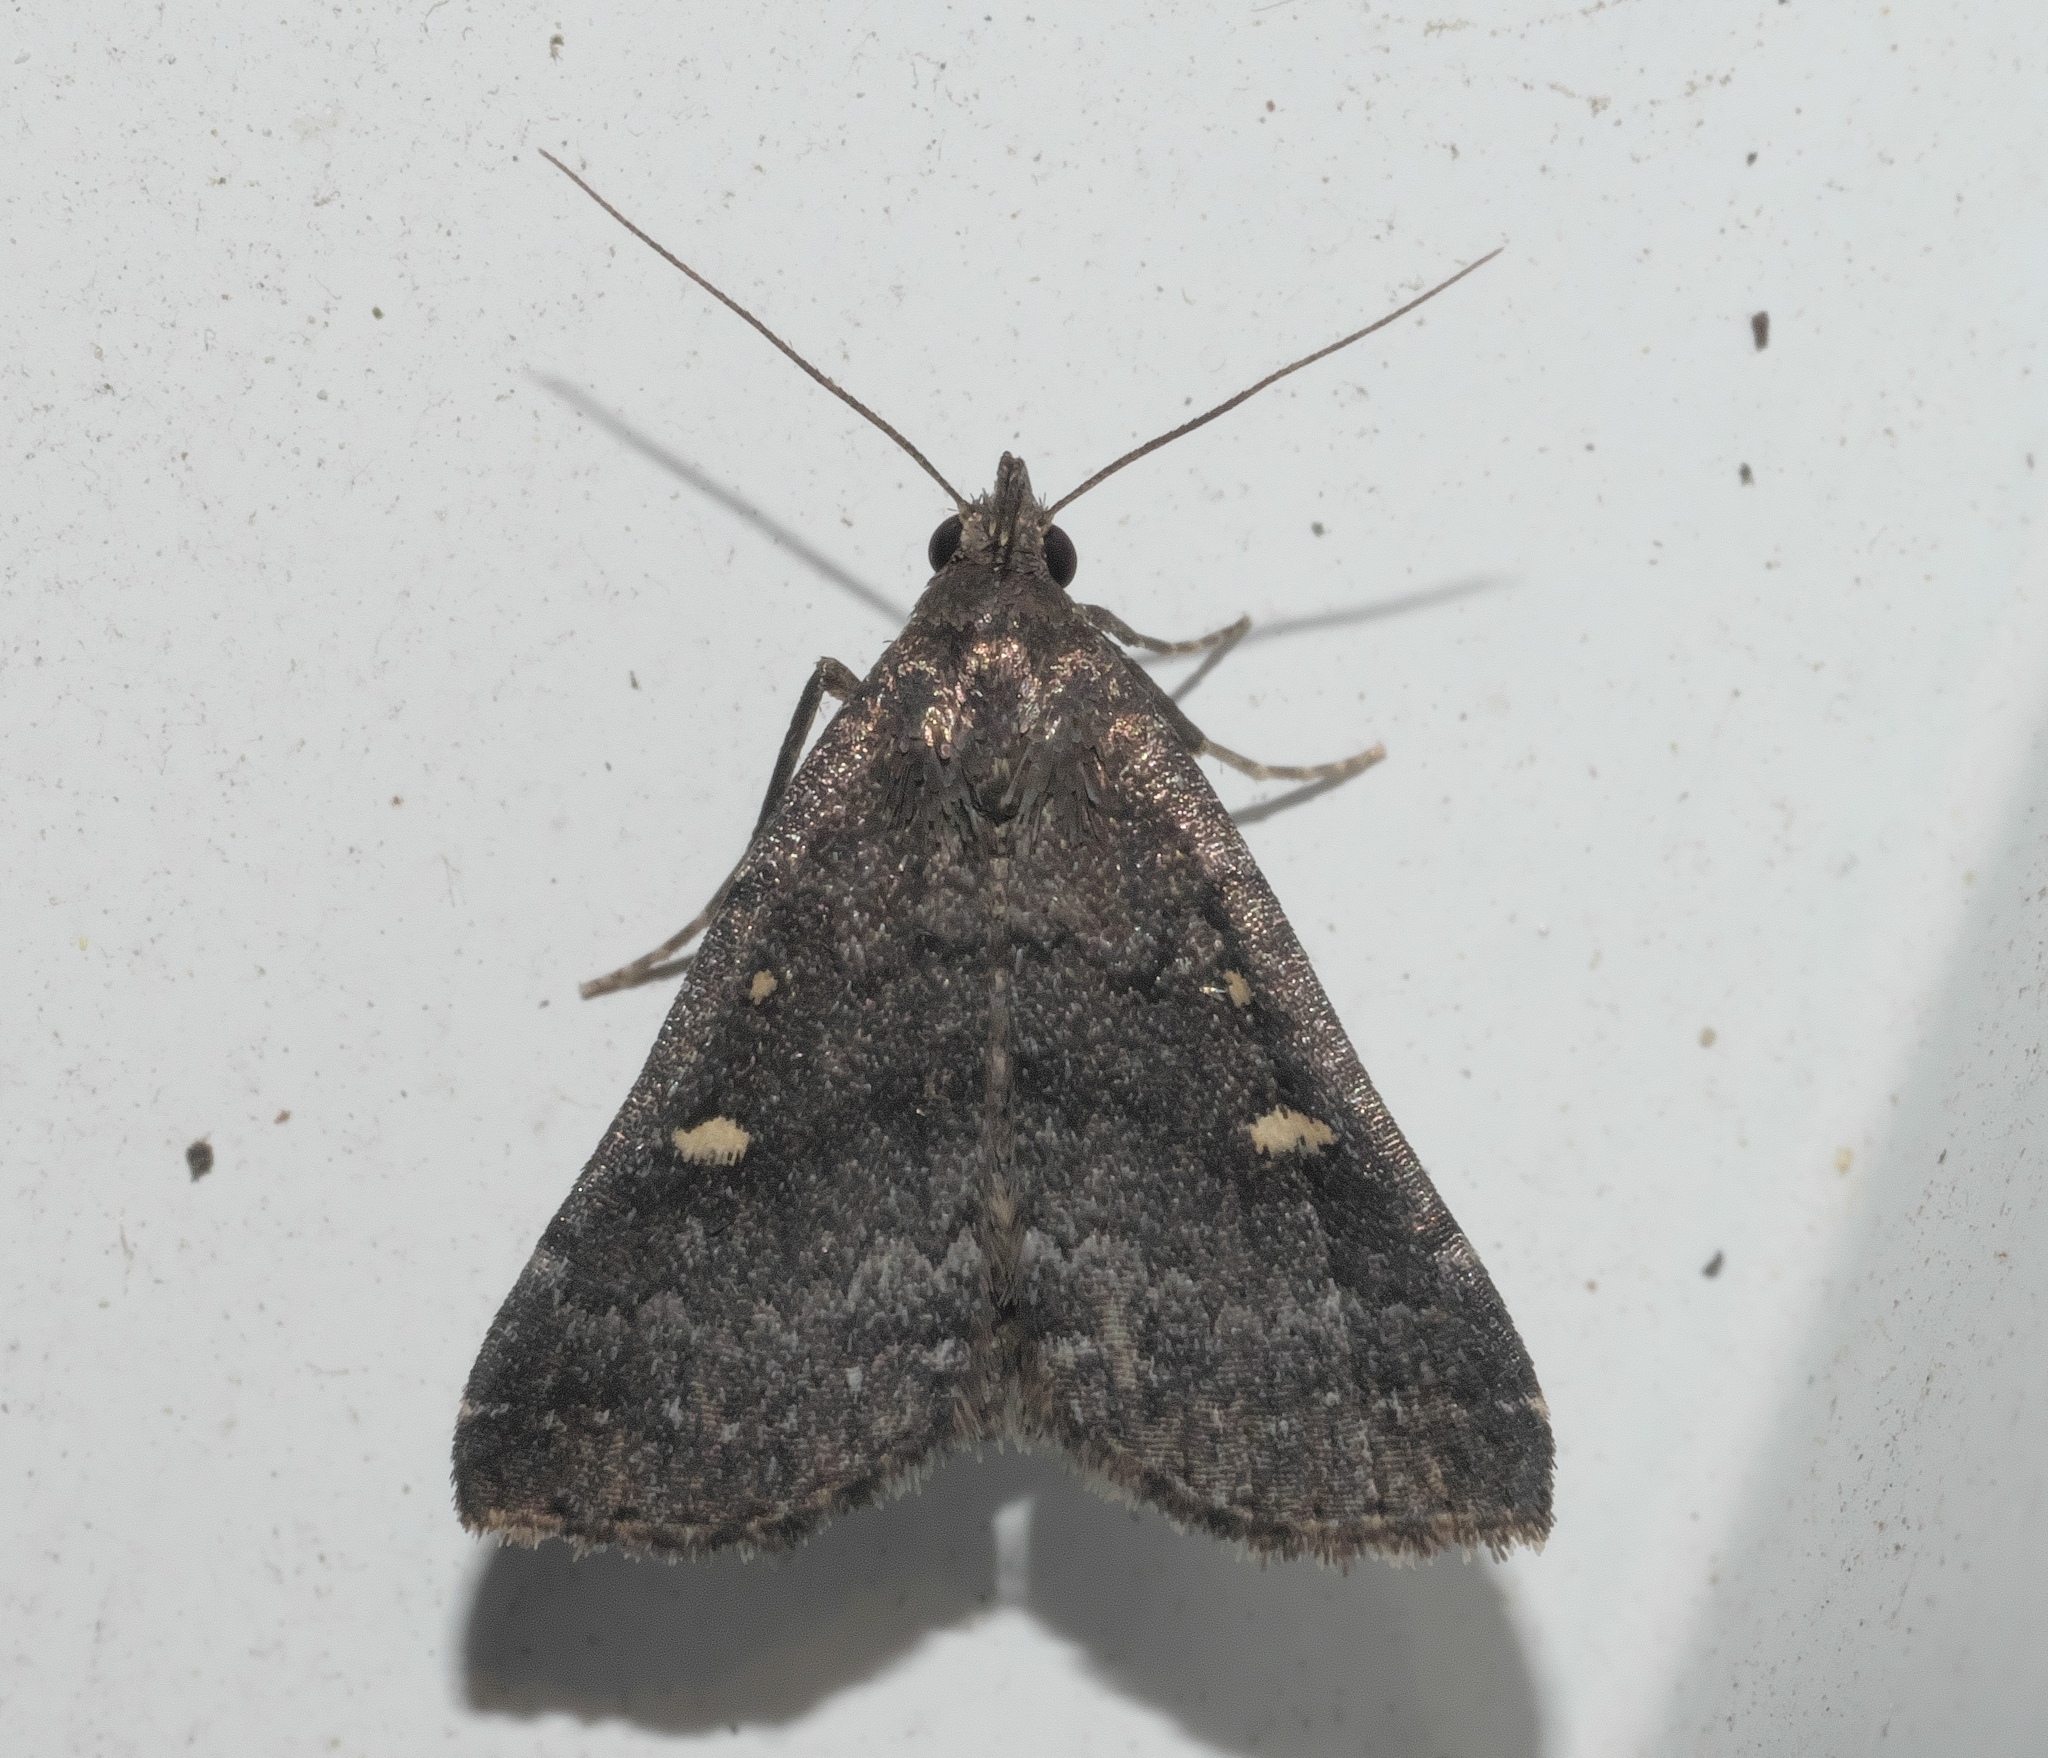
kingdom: Animalia
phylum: Arthropoda
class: Insecta
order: Lepidoptera
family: Erebidae
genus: Tetanolita
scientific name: Tetanolita mynesalis
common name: Smoky tetanolita moth
